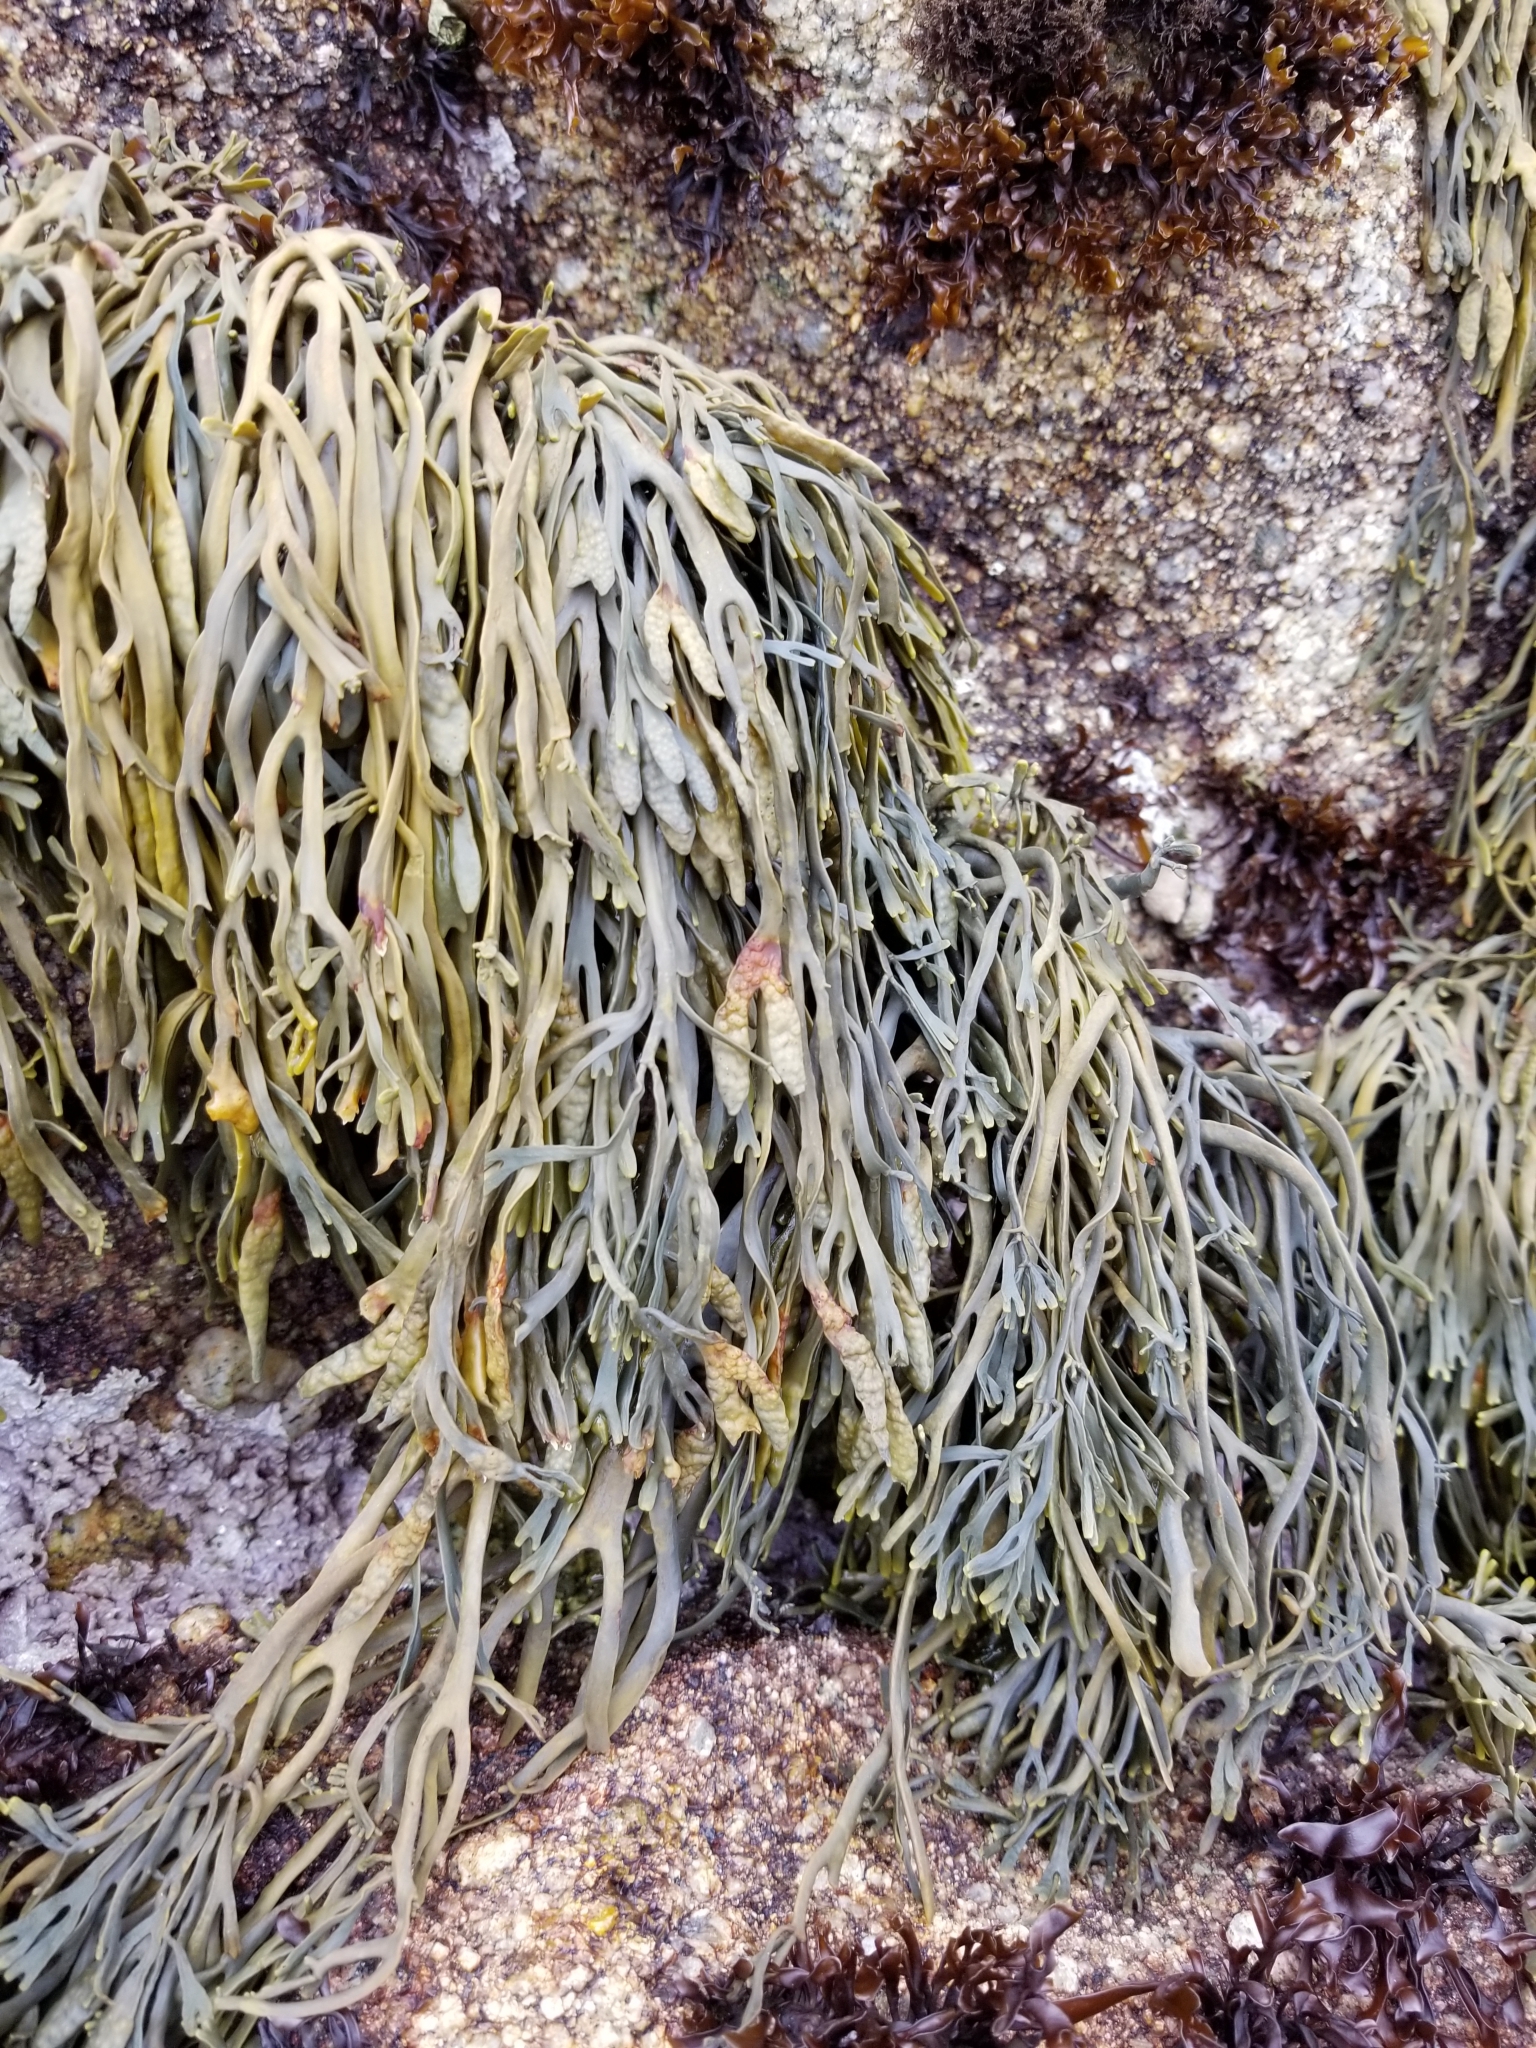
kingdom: Chromista
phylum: Ochrophyta
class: Phaeophyceae
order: Fucales
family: Fucaceae
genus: Silvetia
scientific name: Silvetia
